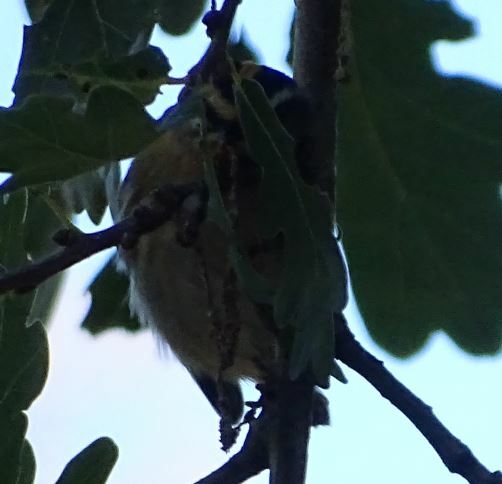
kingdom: Animalia
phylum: Chordata
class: Aves
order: Passeriformes
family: Regulidae
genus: Regulus
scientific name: Regulus ignicapilla
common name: Firecrest
